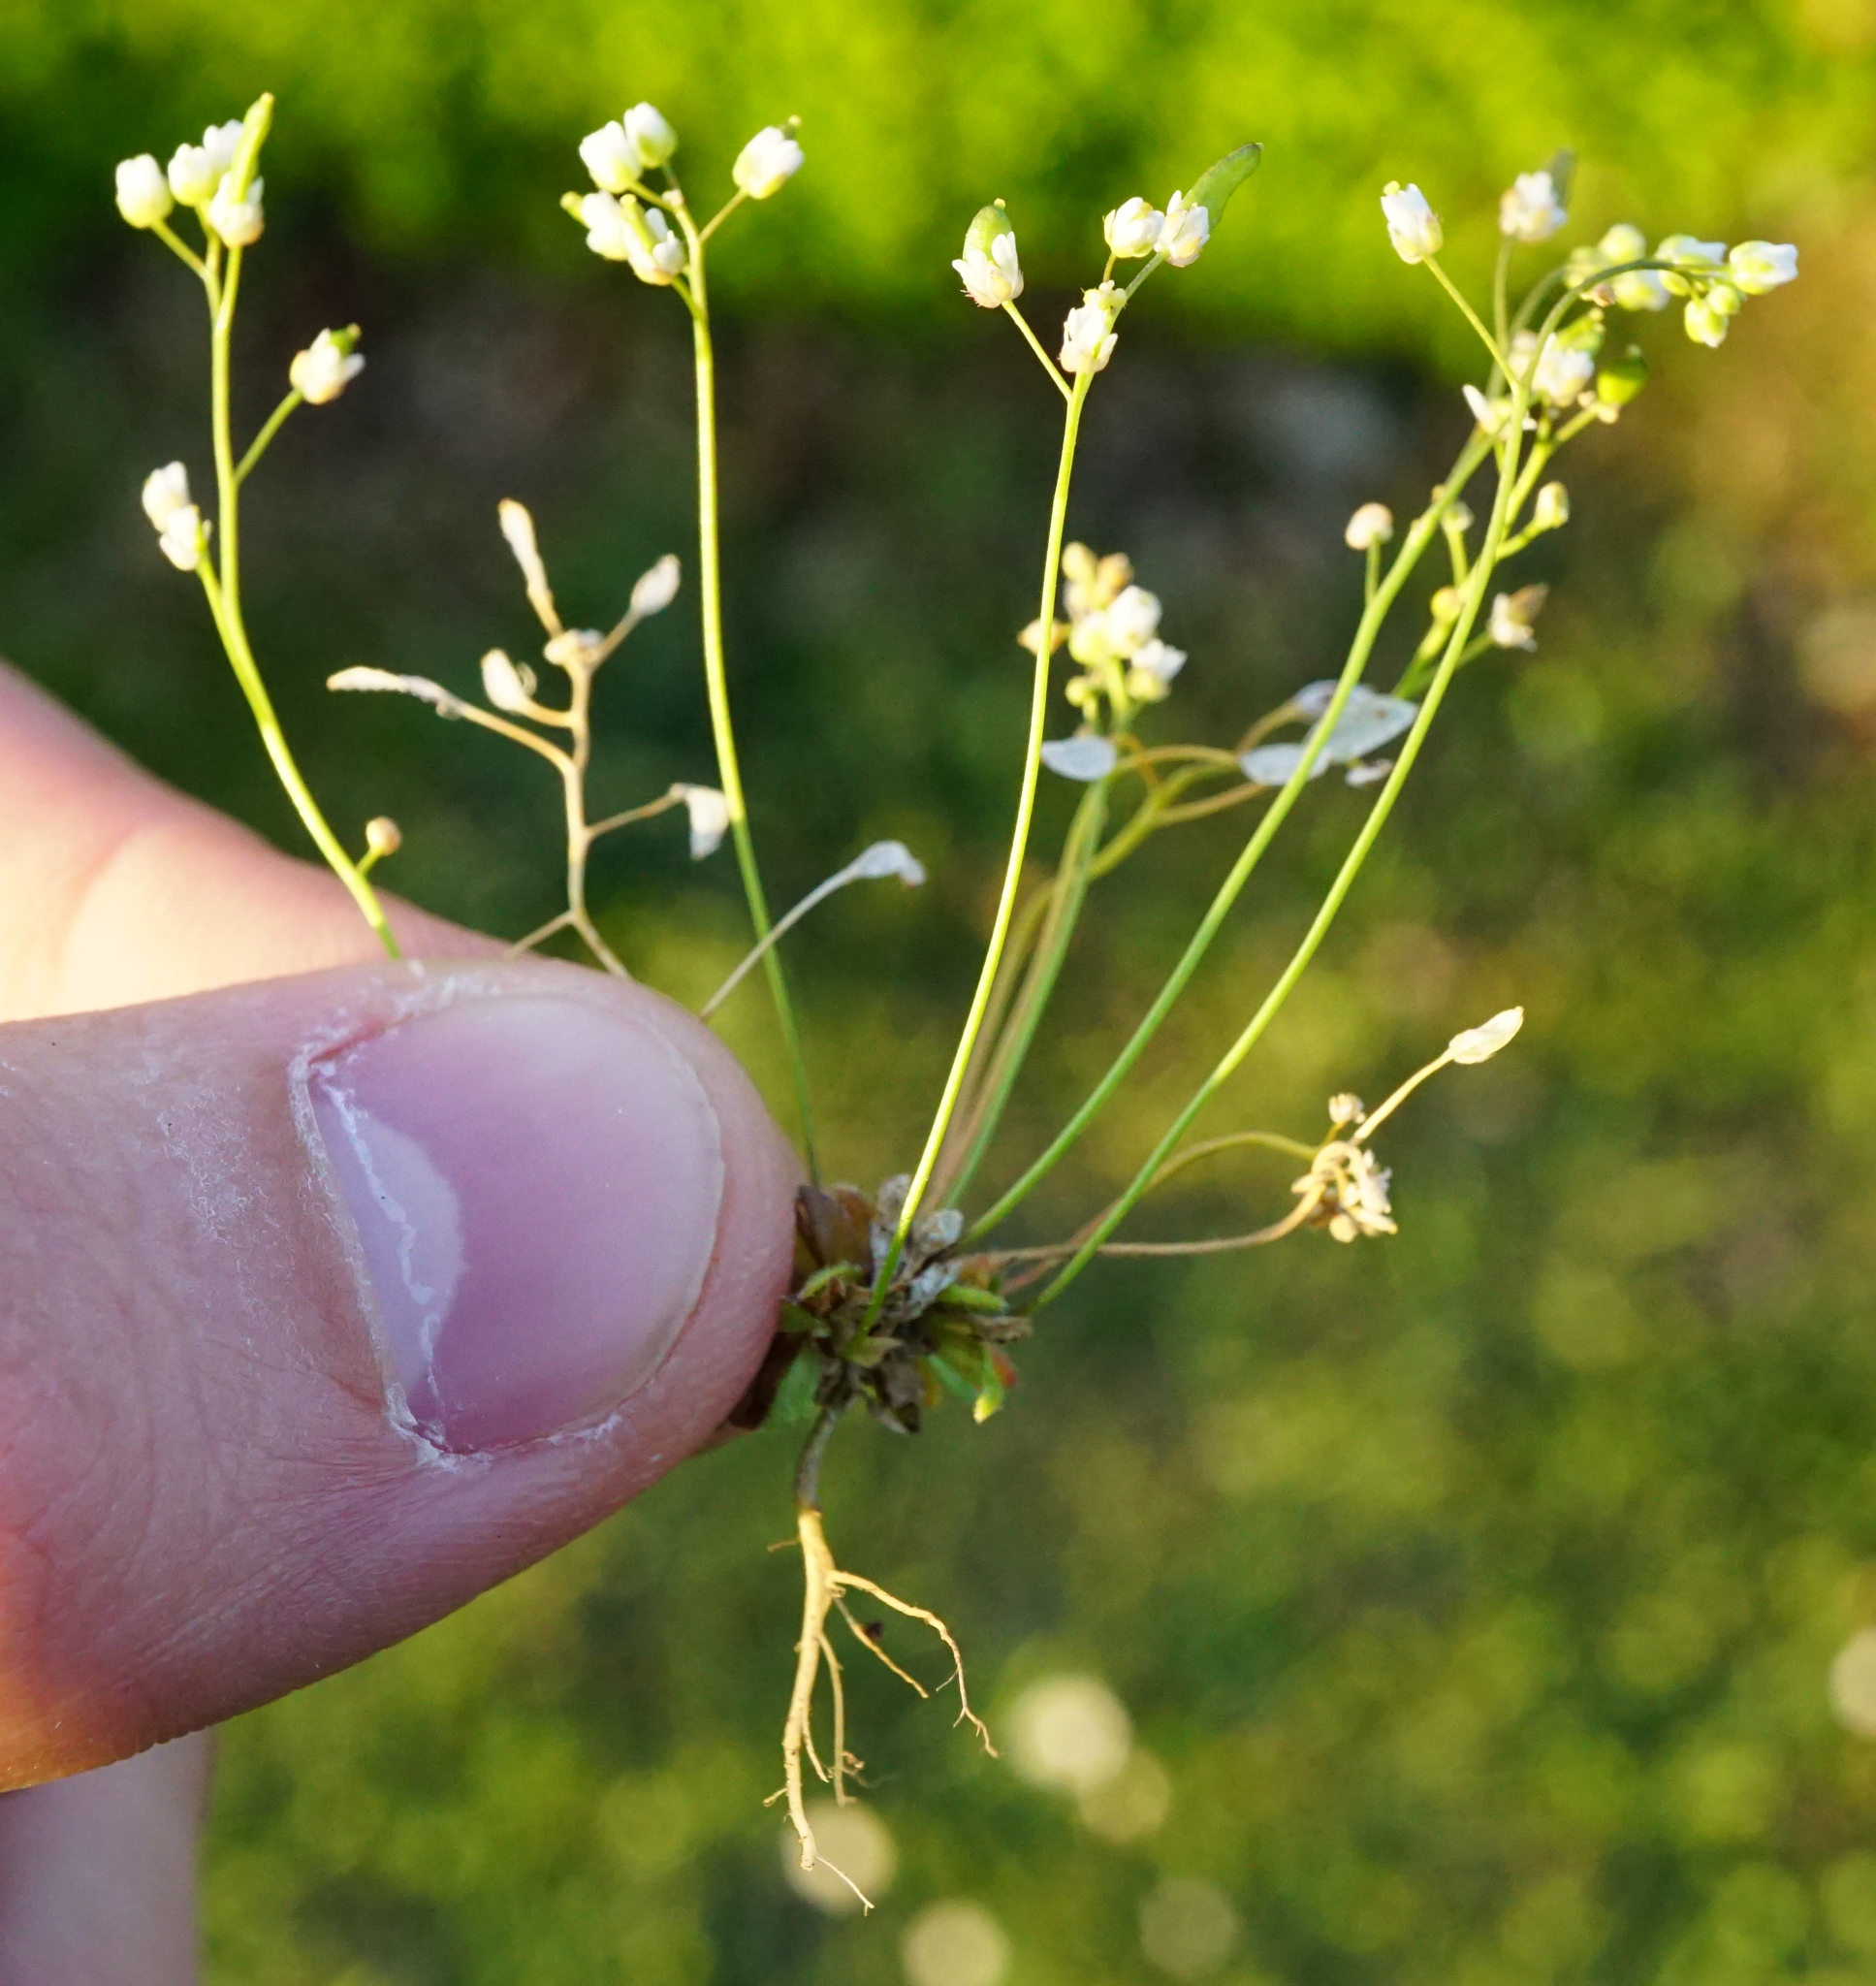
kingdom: Plantae
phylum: Tracheophyta
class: Magnoliopsida
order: Brassicales
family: Brassicaceae
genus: Draba
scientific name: Draba verna
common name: Spring draba
